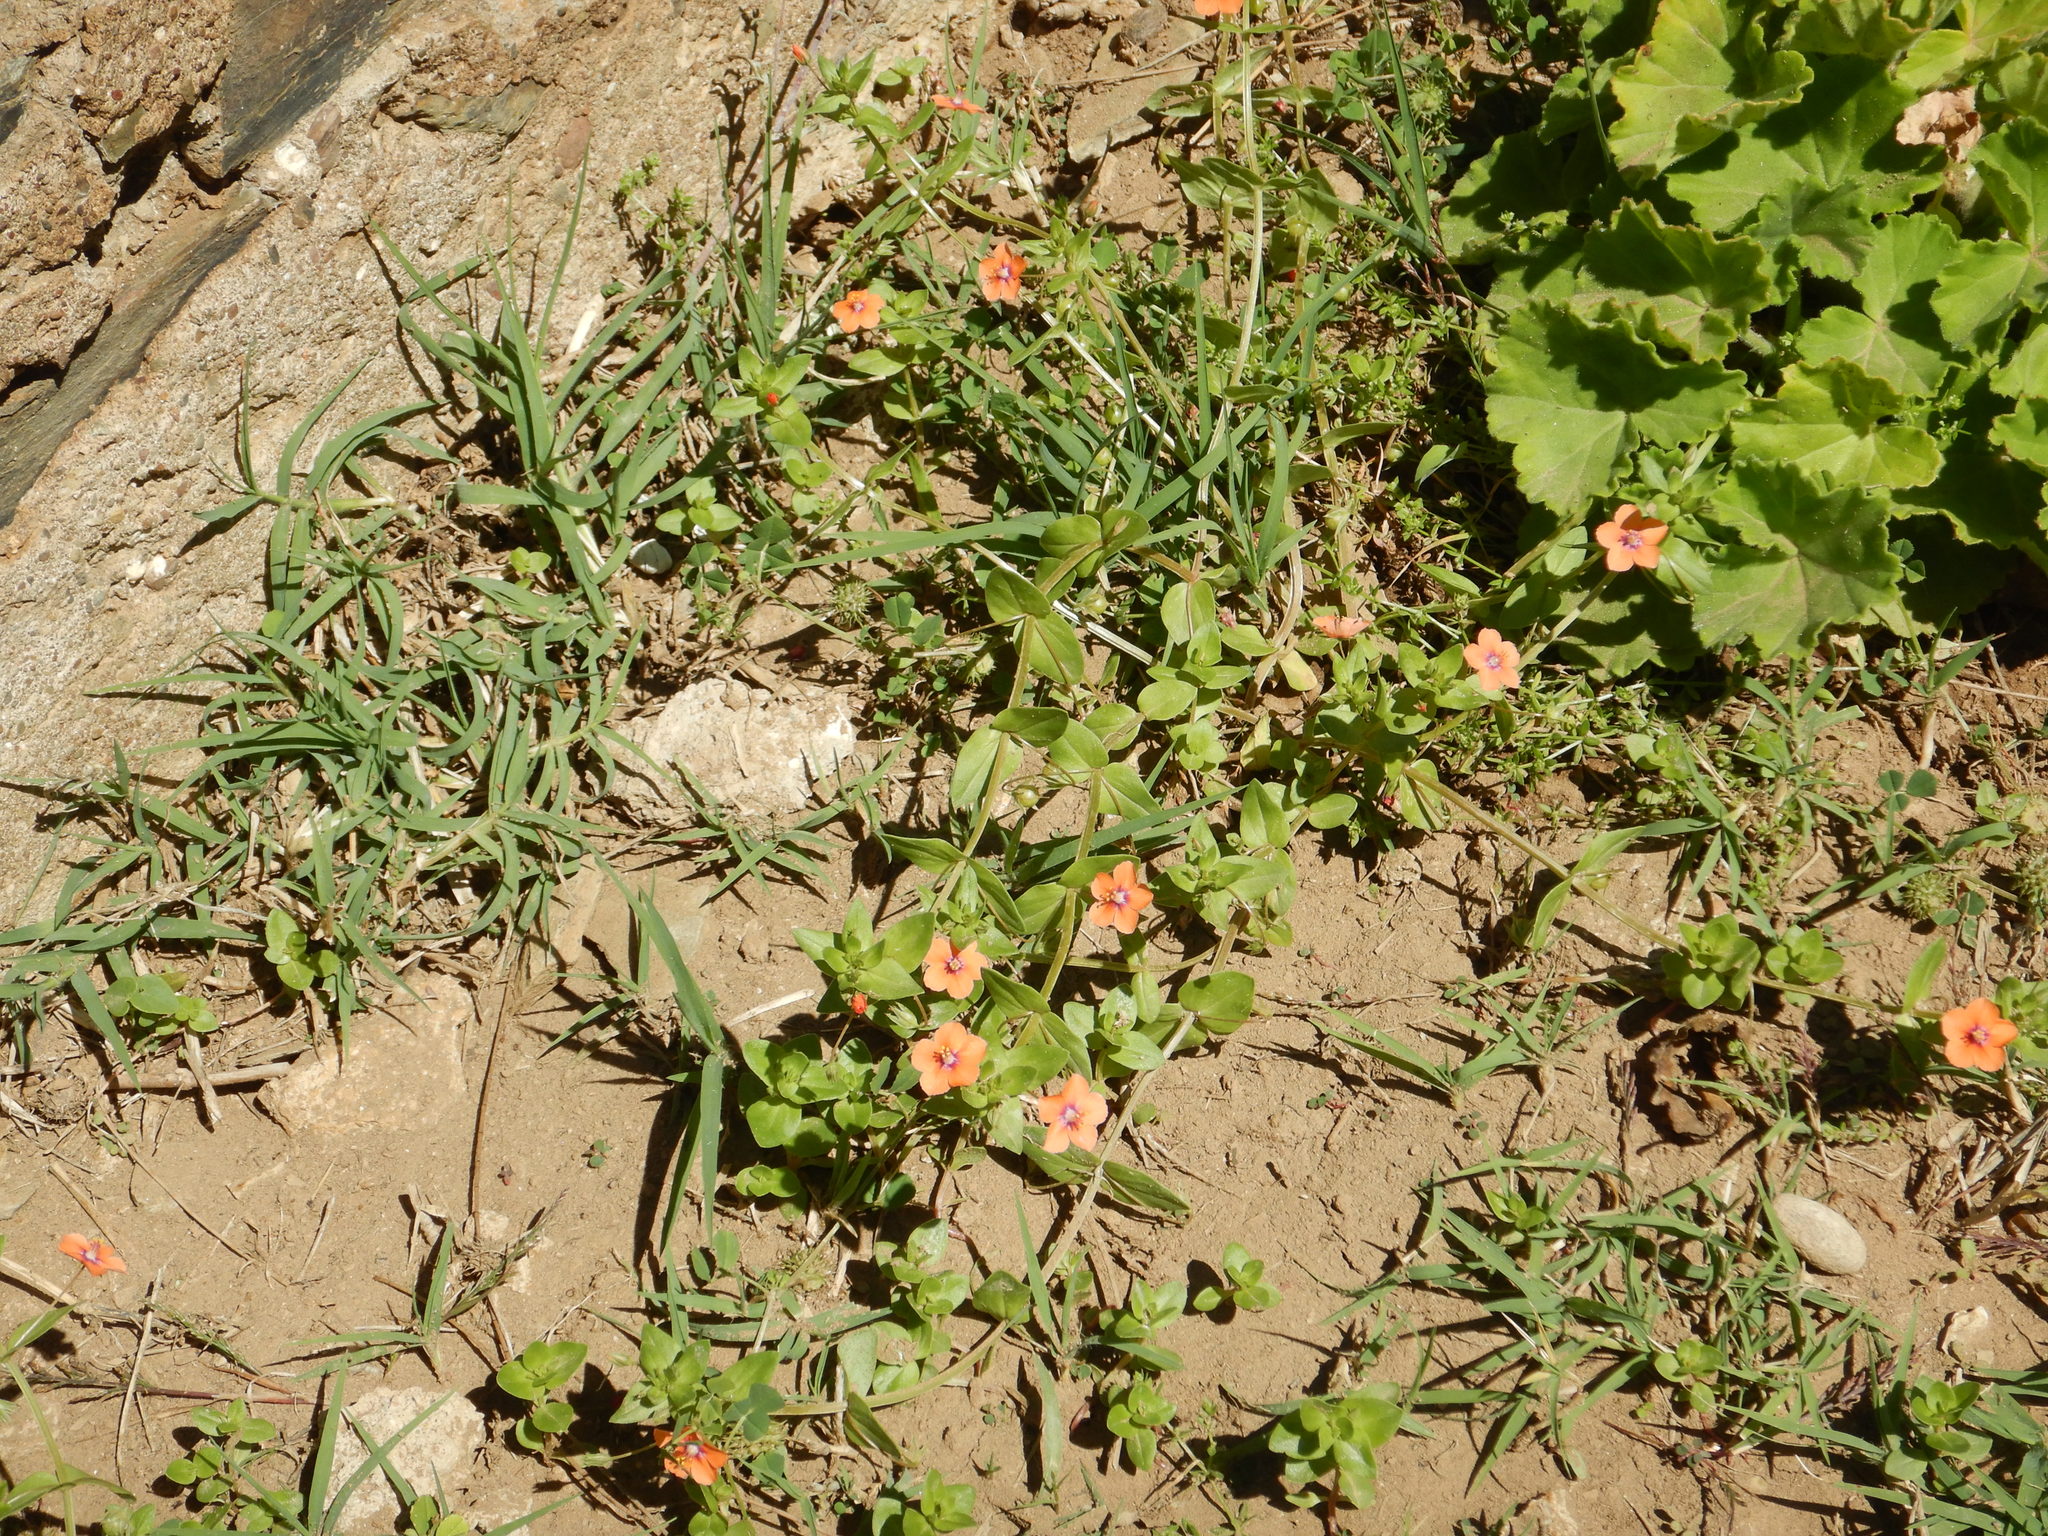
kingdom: Plantae
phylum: Tracheophyta
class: Magnoliopsida
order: Ericales
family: Primulaceae
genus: Lysimachia
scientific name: Lysimachia arvensis
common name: Scarlet pimpernel
